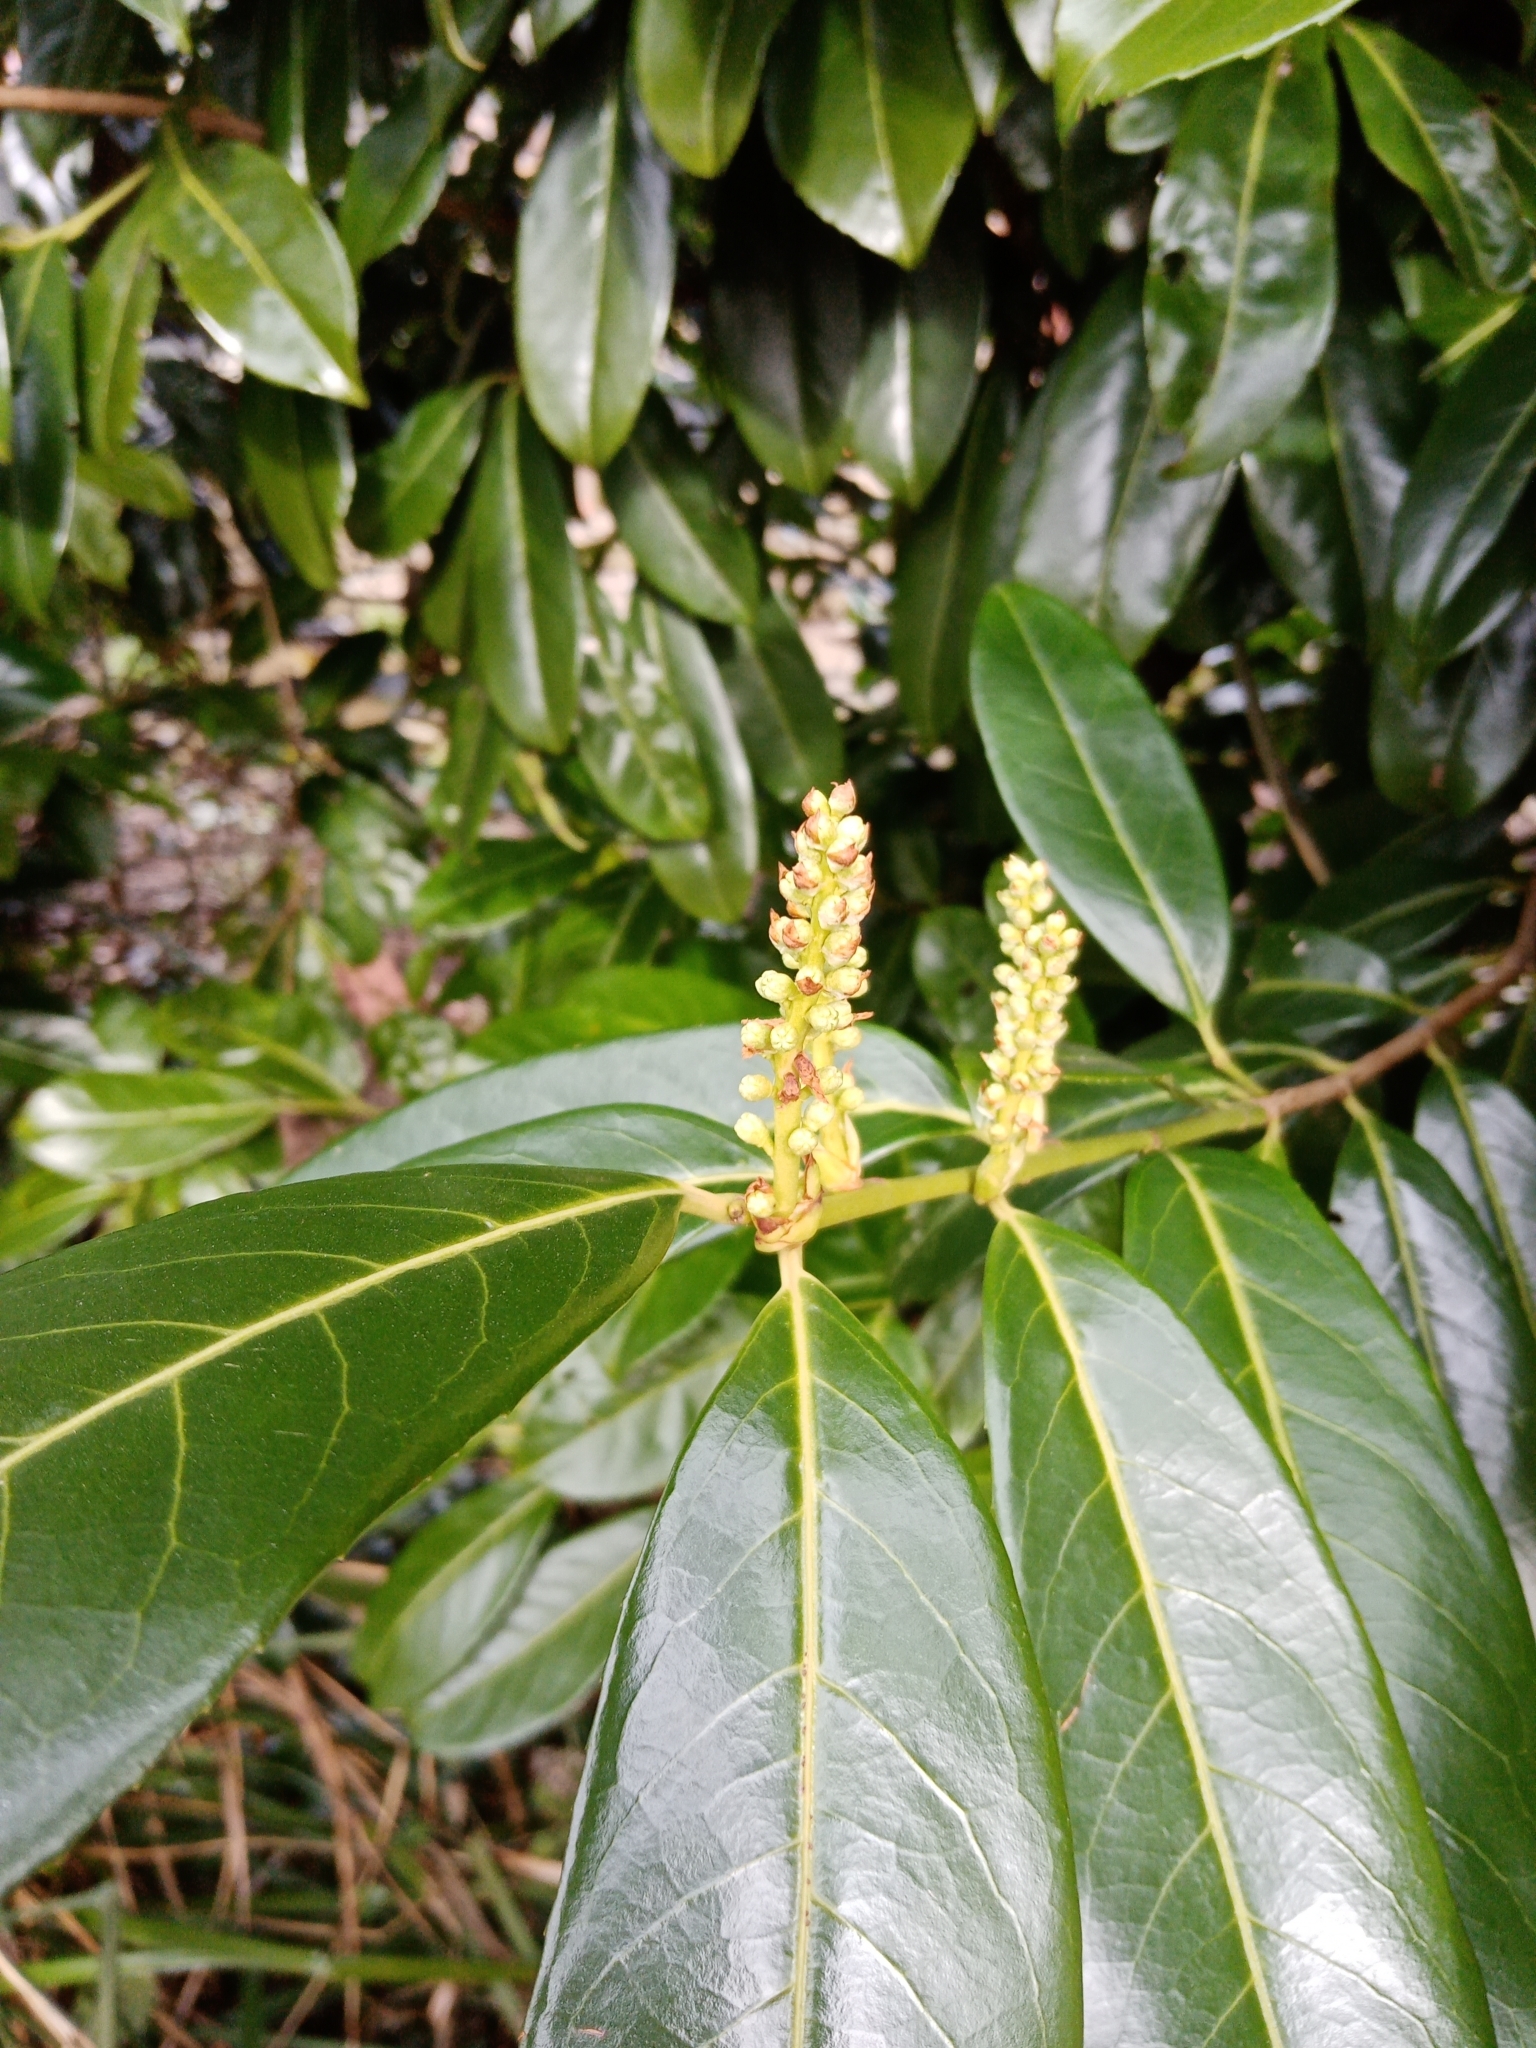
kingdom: Plantae
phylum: Tracheophyta
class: Magnoliopsida
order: Rosales
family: Rosaceae
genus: Prunus
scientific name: Prunus laurocerasus
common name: Cherry laurel
